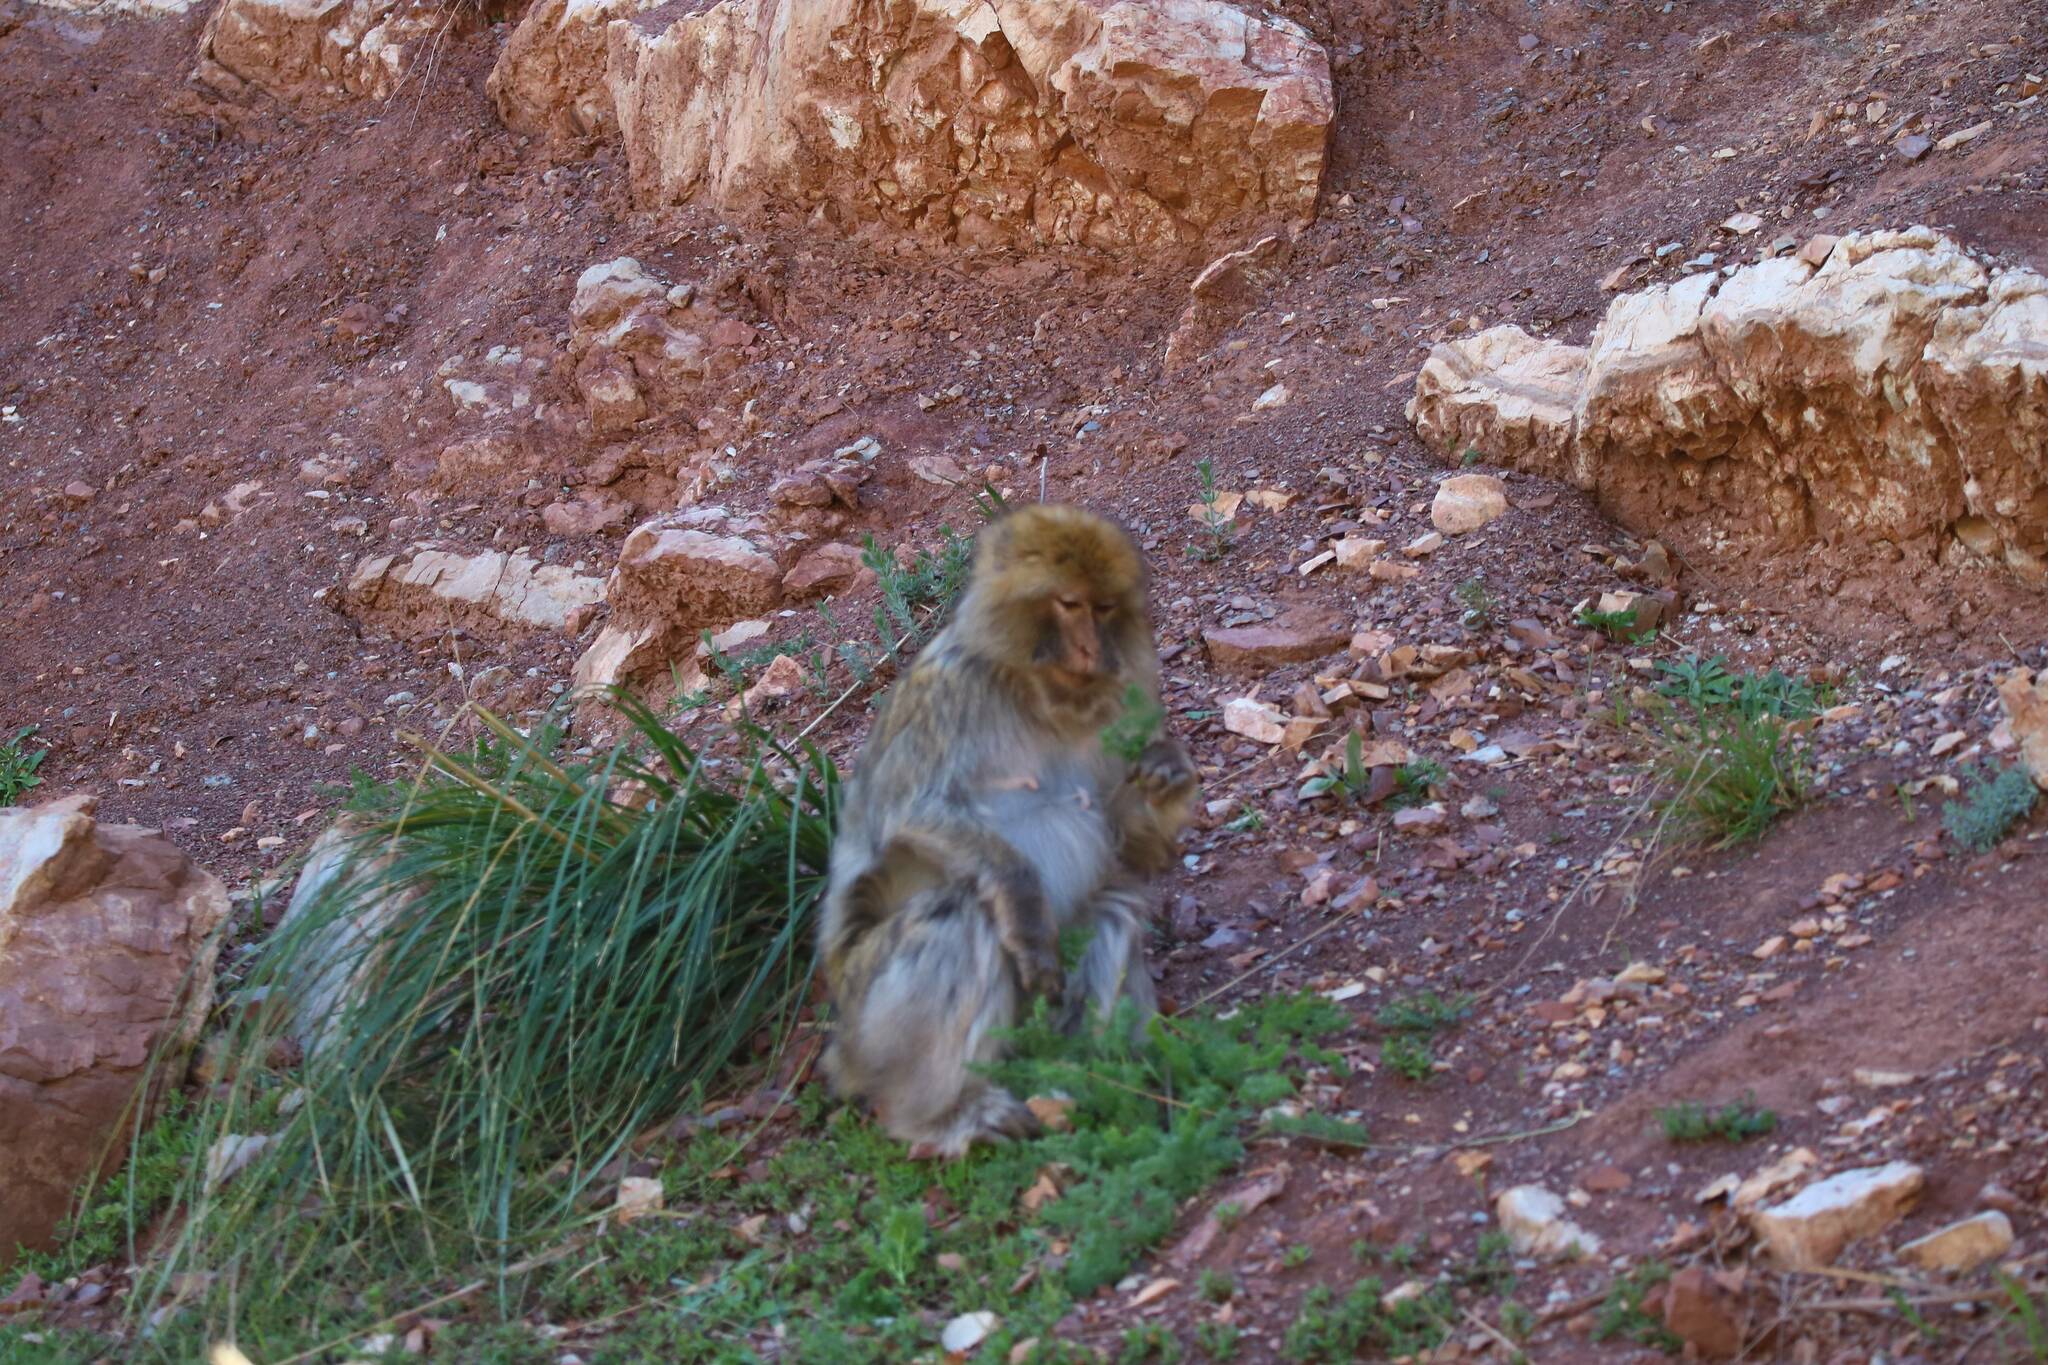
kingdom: Animalia
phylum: Chordata
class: Mammalia
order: Primates
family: Cercopithecidae
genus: Macaca
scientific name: Macaca sylvanus
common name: Barbary macaque
